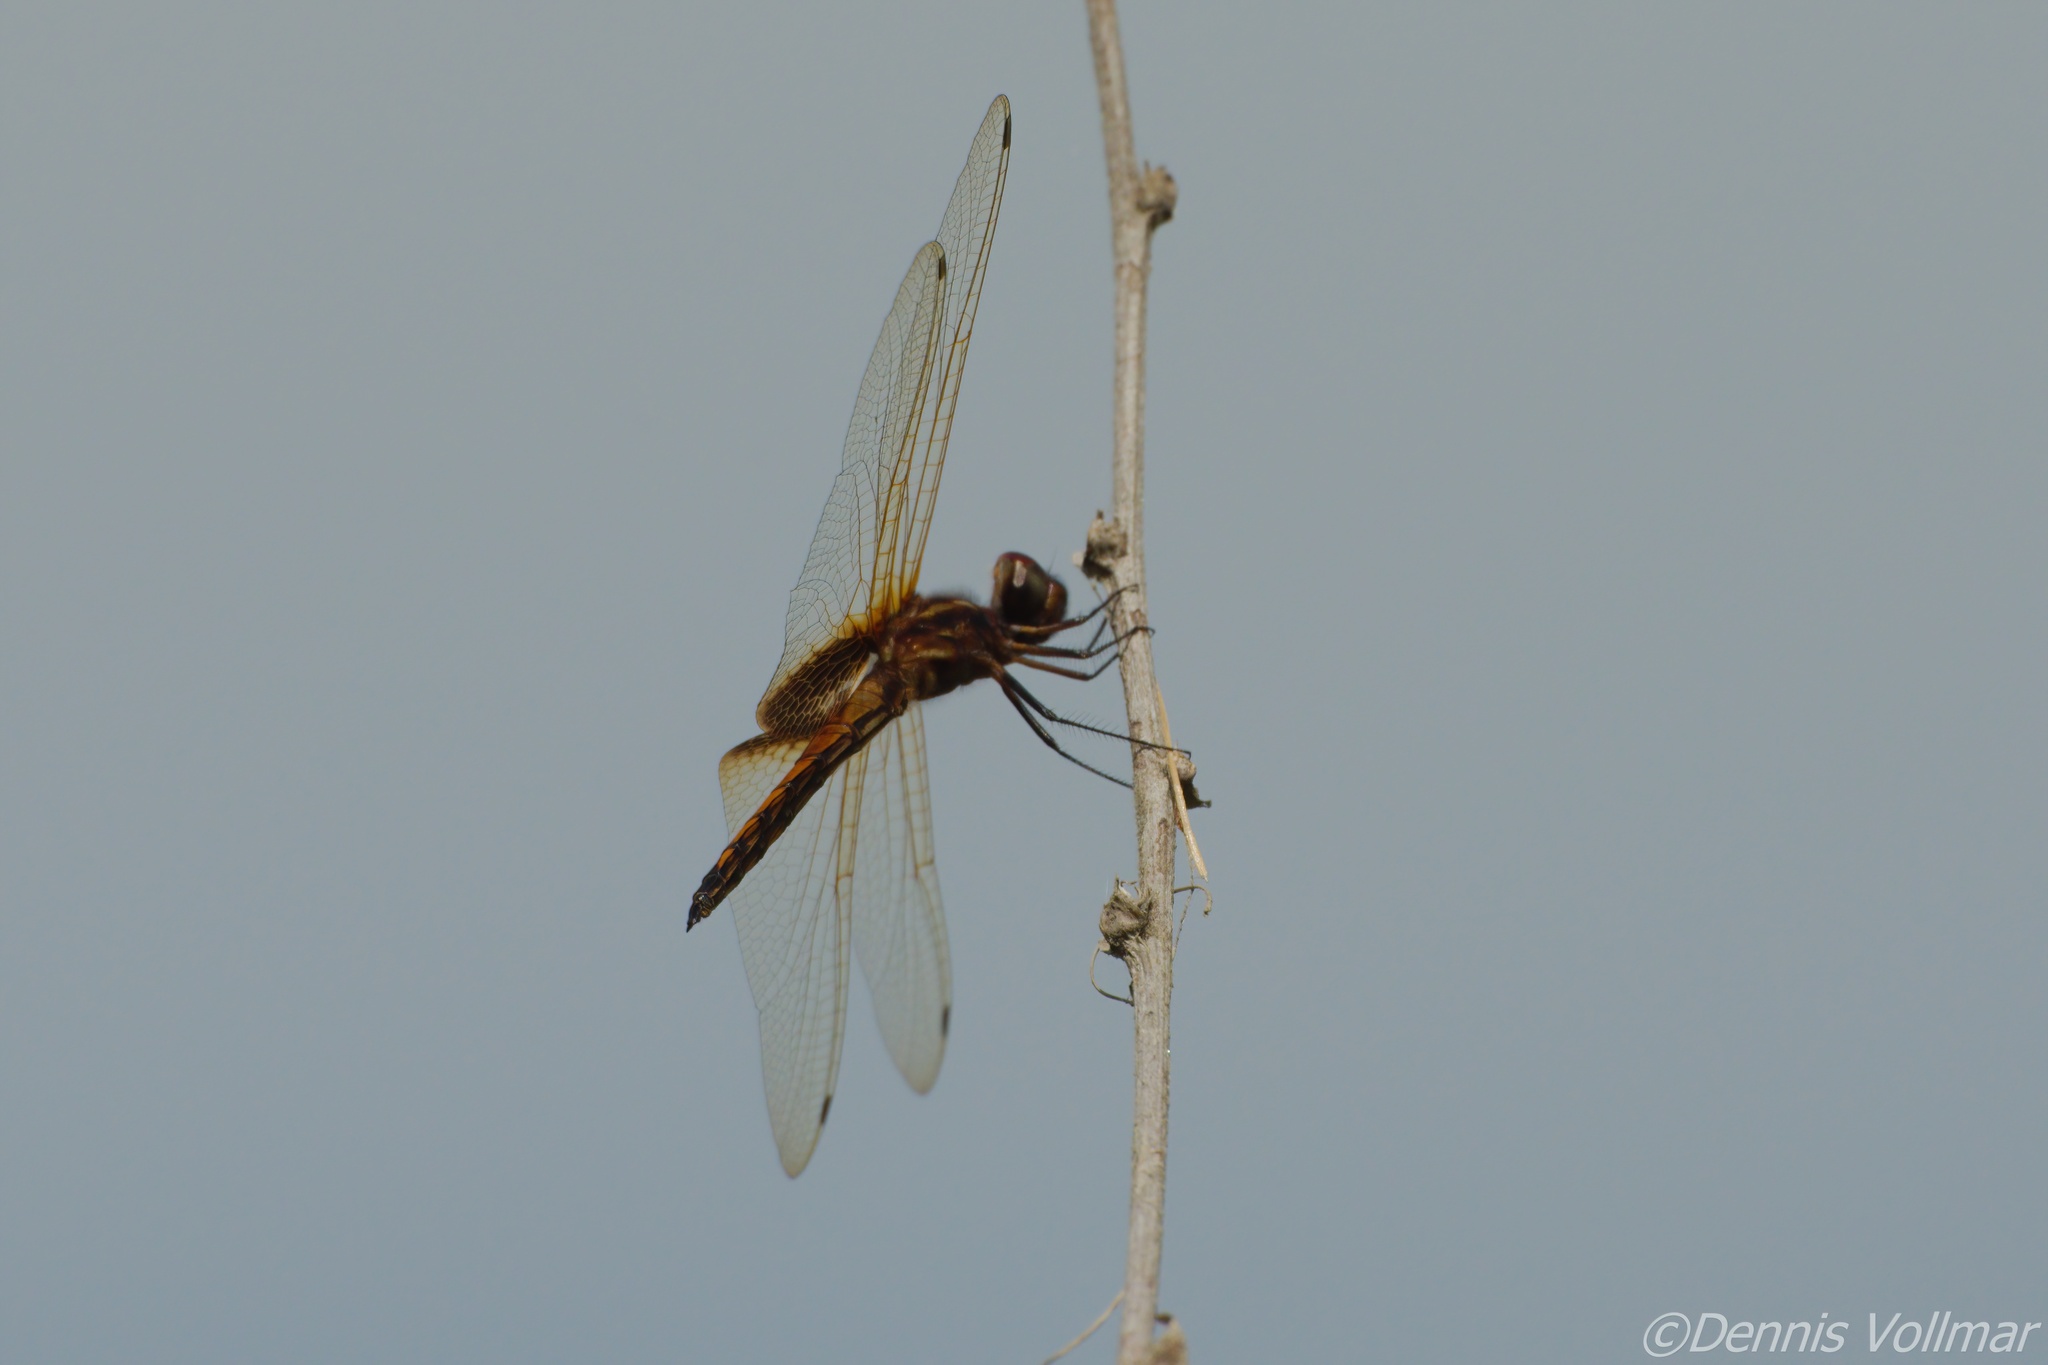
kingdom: Animalia
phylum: Arthropoda
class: Insecta
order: Odonata
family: Libellulidae
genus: Miathyria
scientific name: Miathyria marcella
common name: Hyacinth glider
